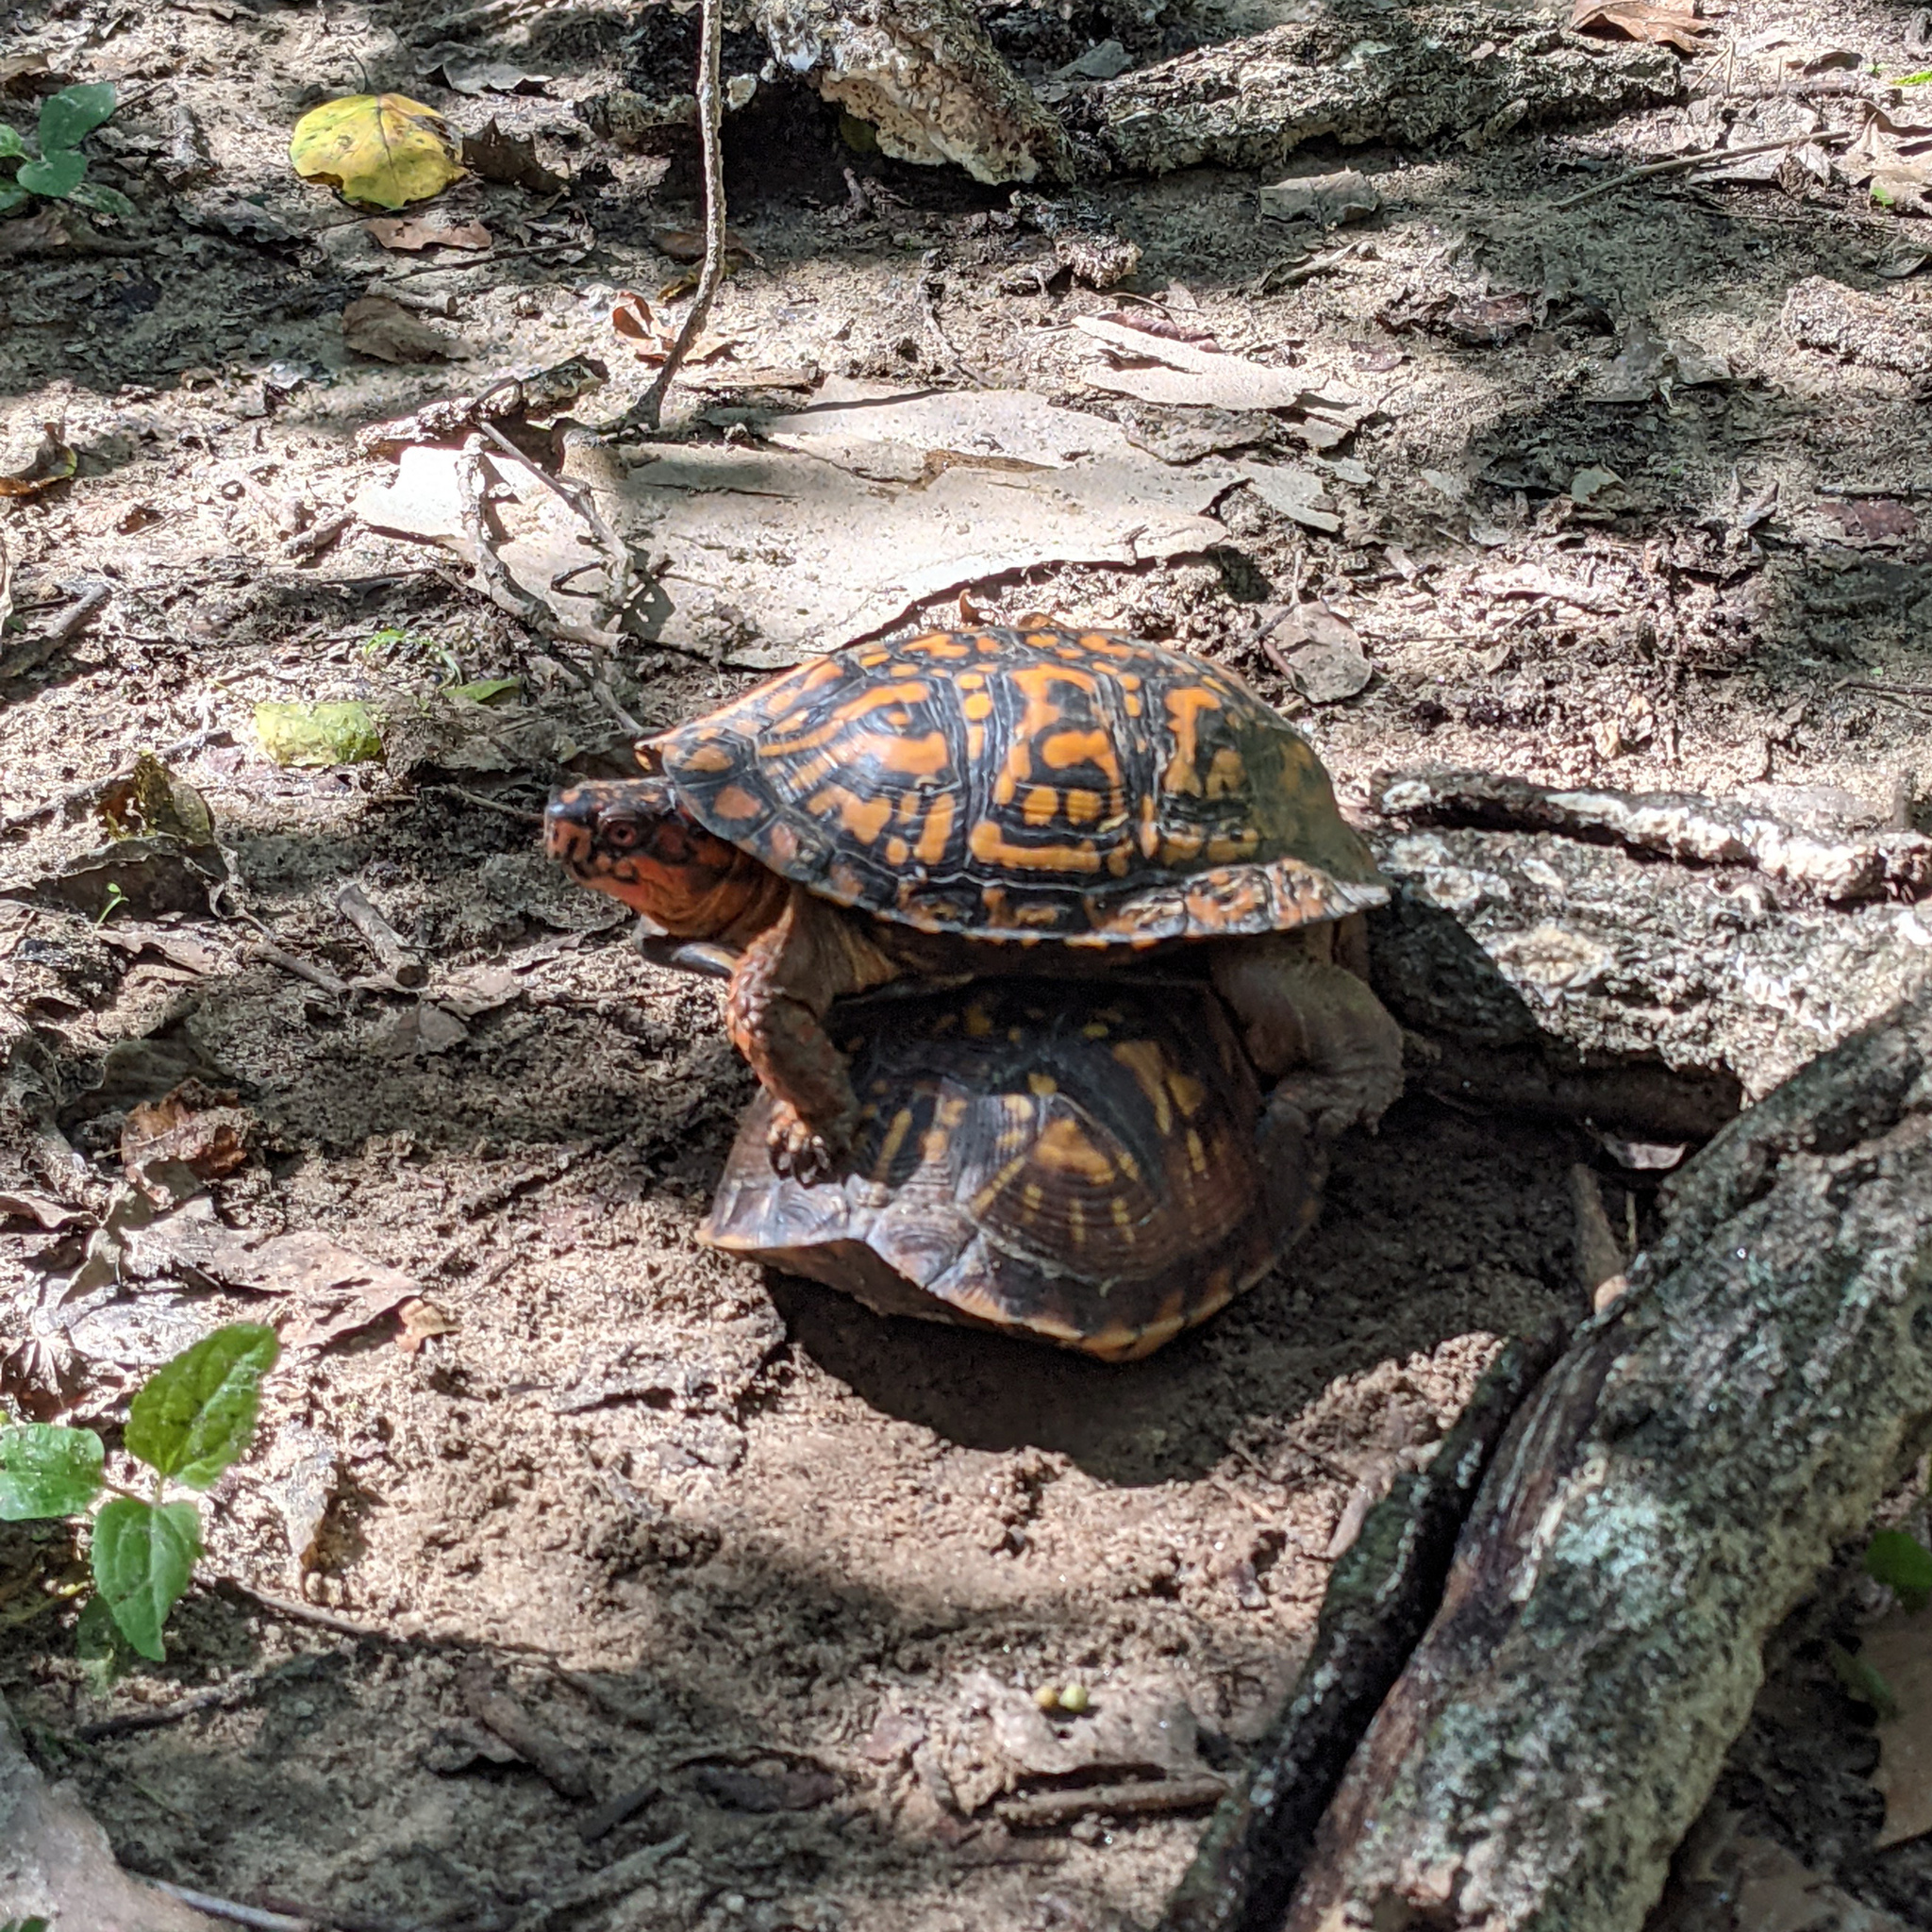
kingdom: Animalia
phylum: Chordata
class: Testudines
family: Emydidae
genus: Terrapene
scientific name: Terrapene carolina
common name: Common box turtle
